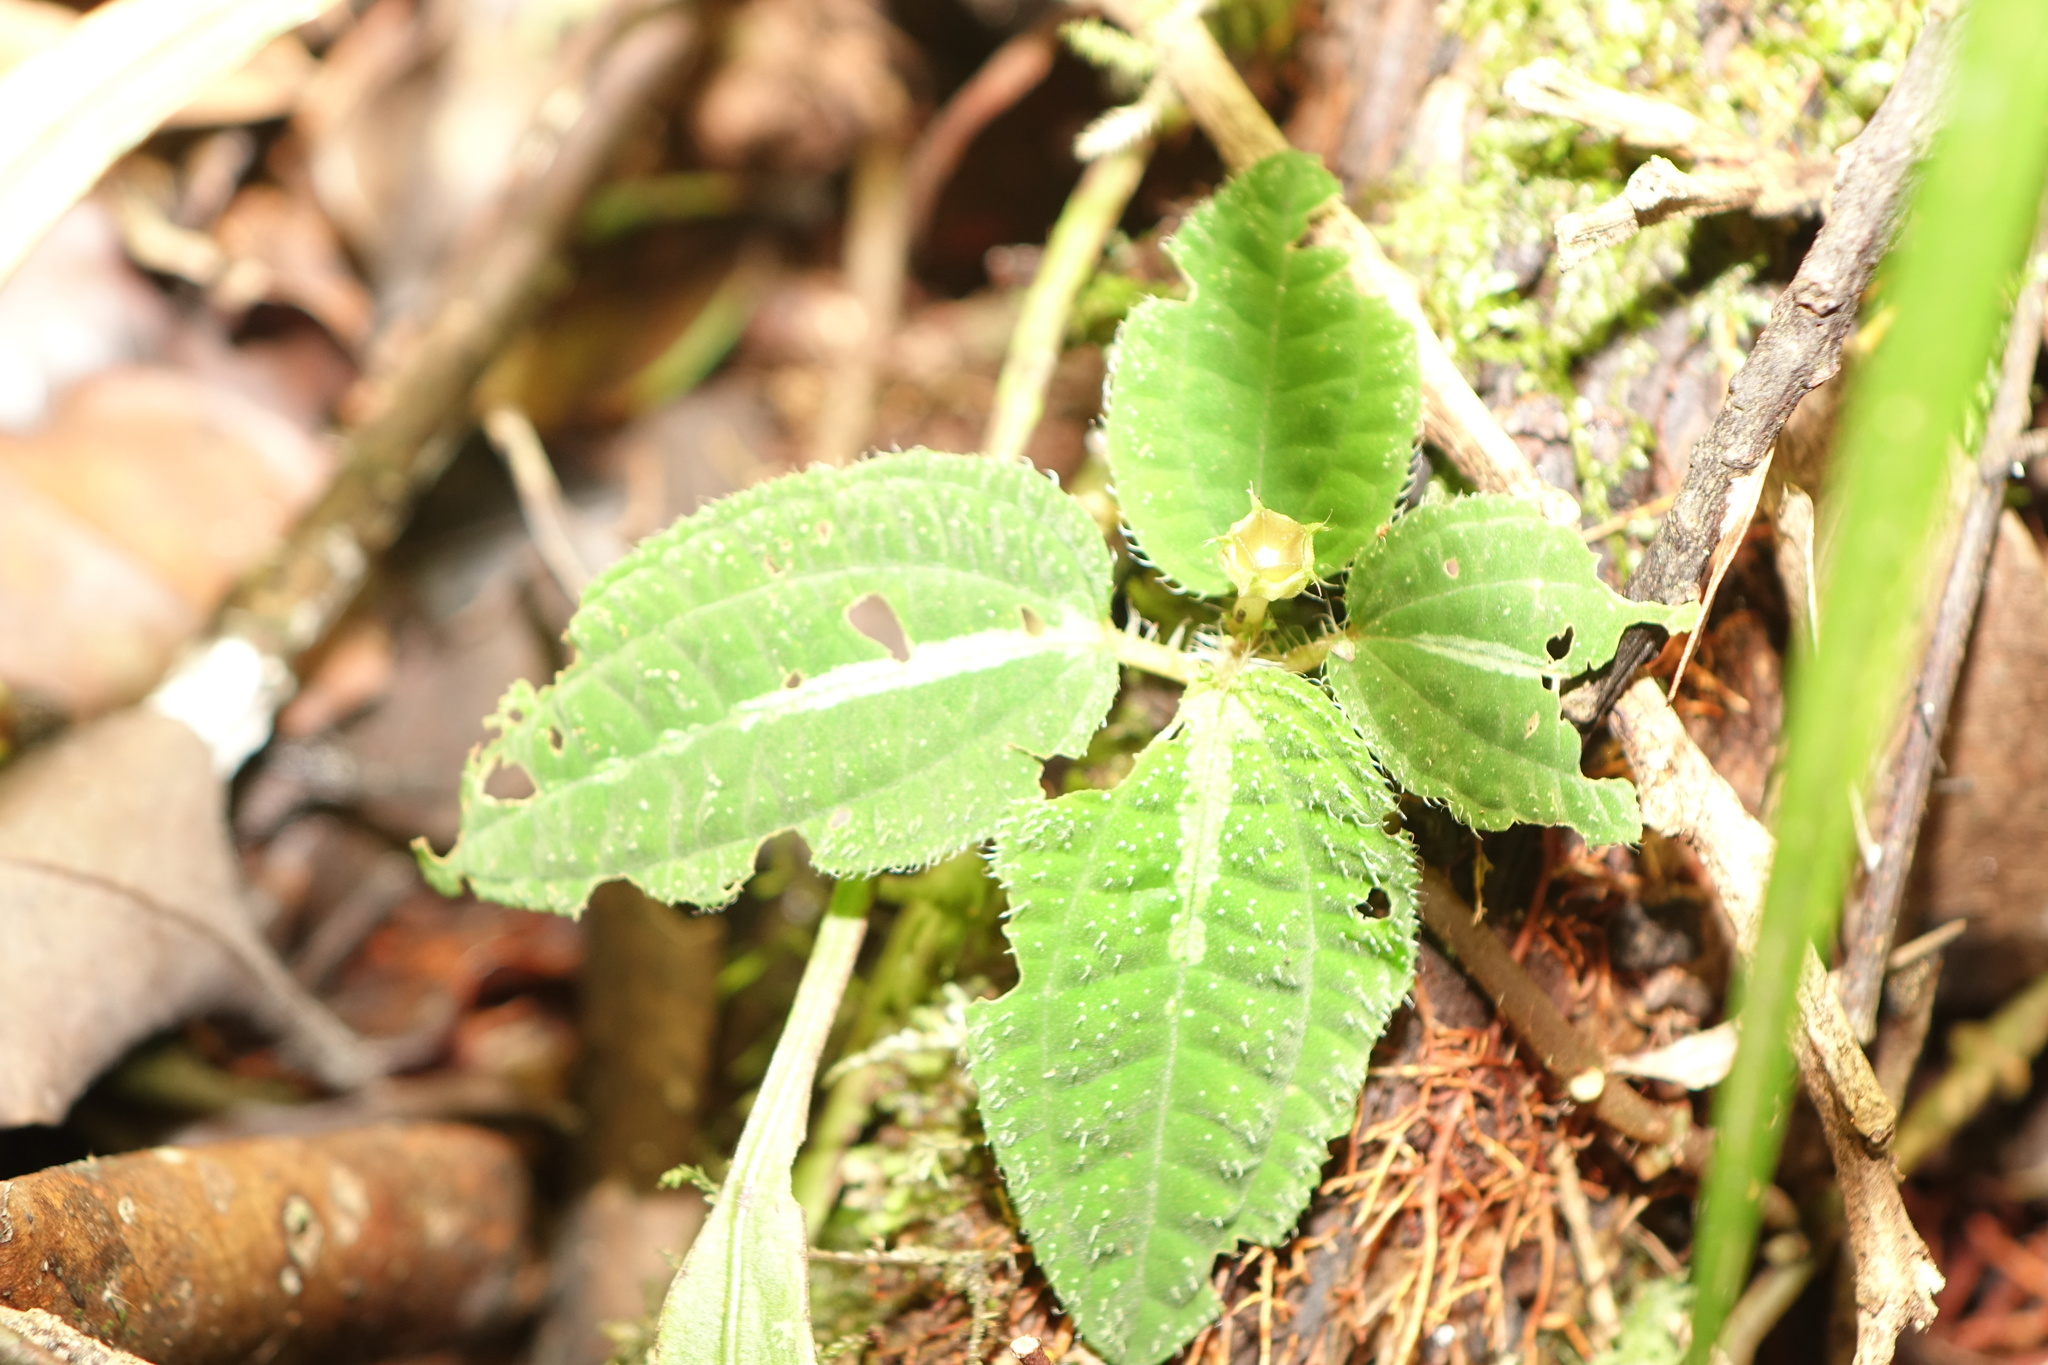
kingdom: Plantae
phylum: Tracheophyta
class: Magnoliopsida
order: Myrtales
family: Melastomataceae
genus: Gravesia
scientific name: Gravesia mirabilis
